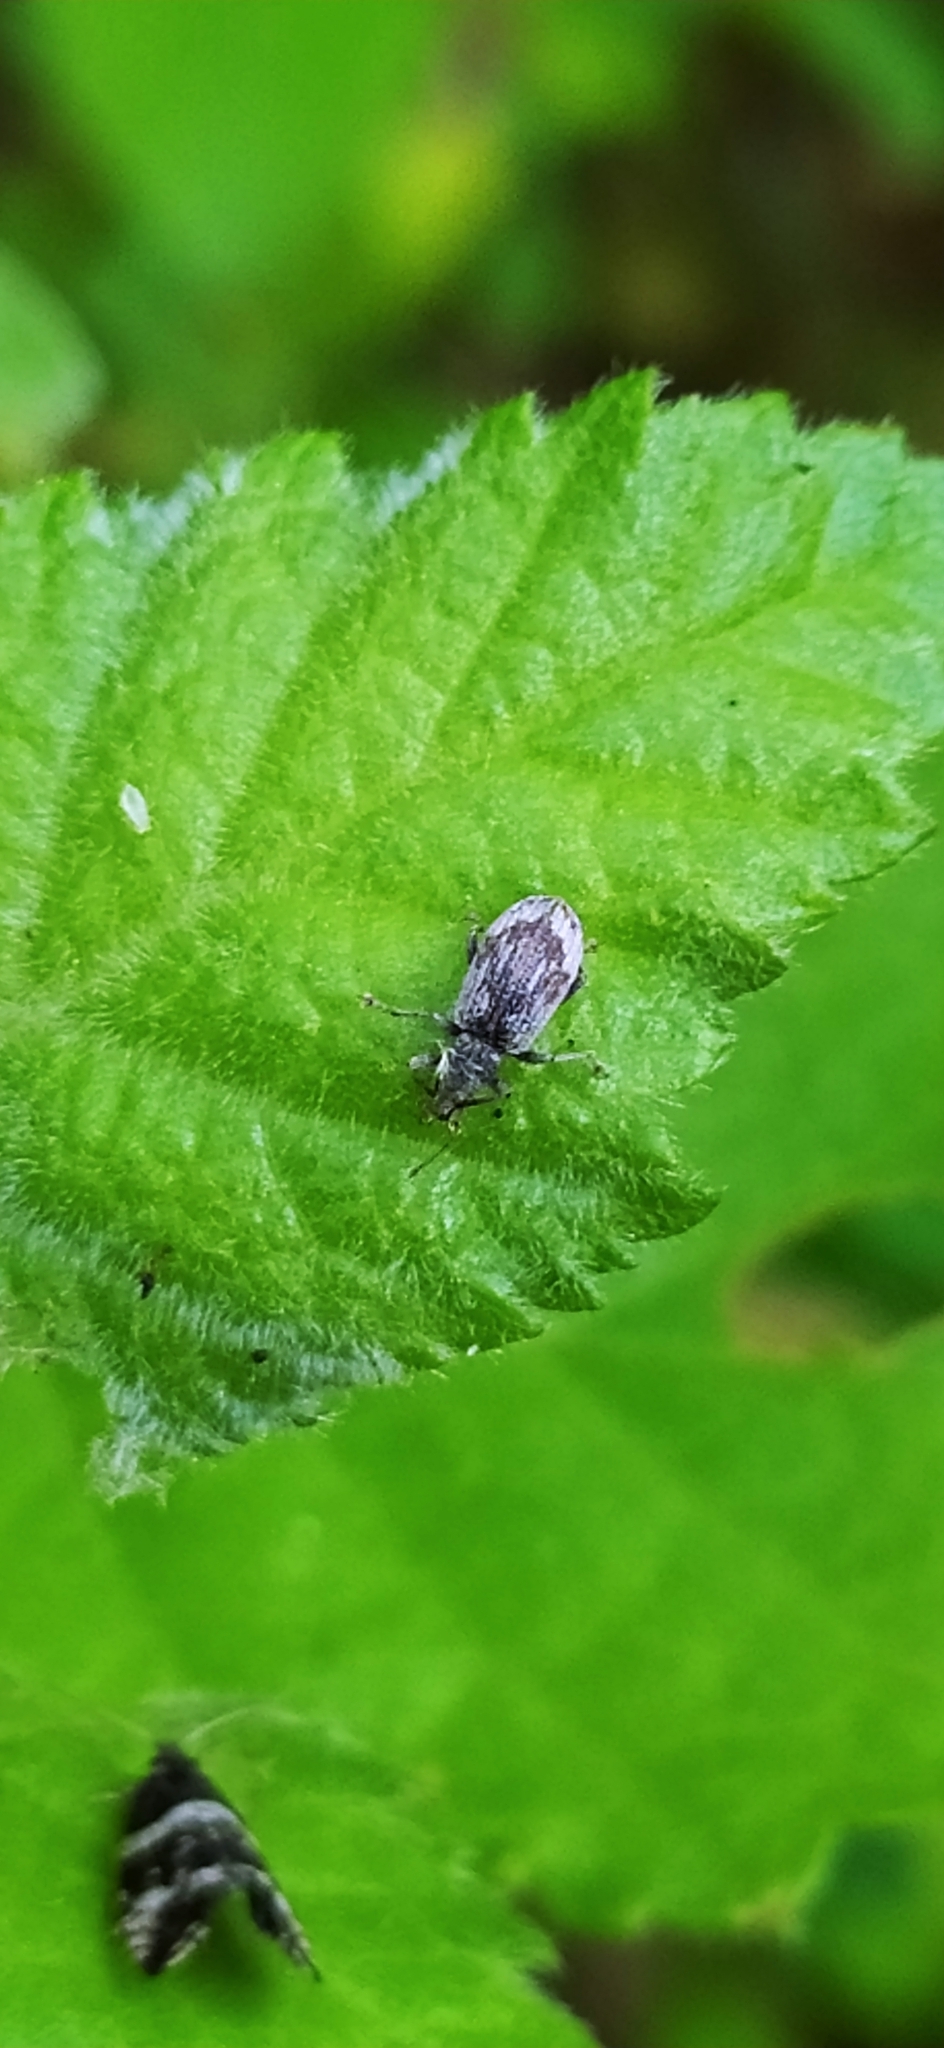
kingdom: Animalia
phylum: Arthropoda
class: Insecta
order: Coleoptera
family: Curculionidae
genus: Polydrusus
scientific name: Polydrusus tereticollis
